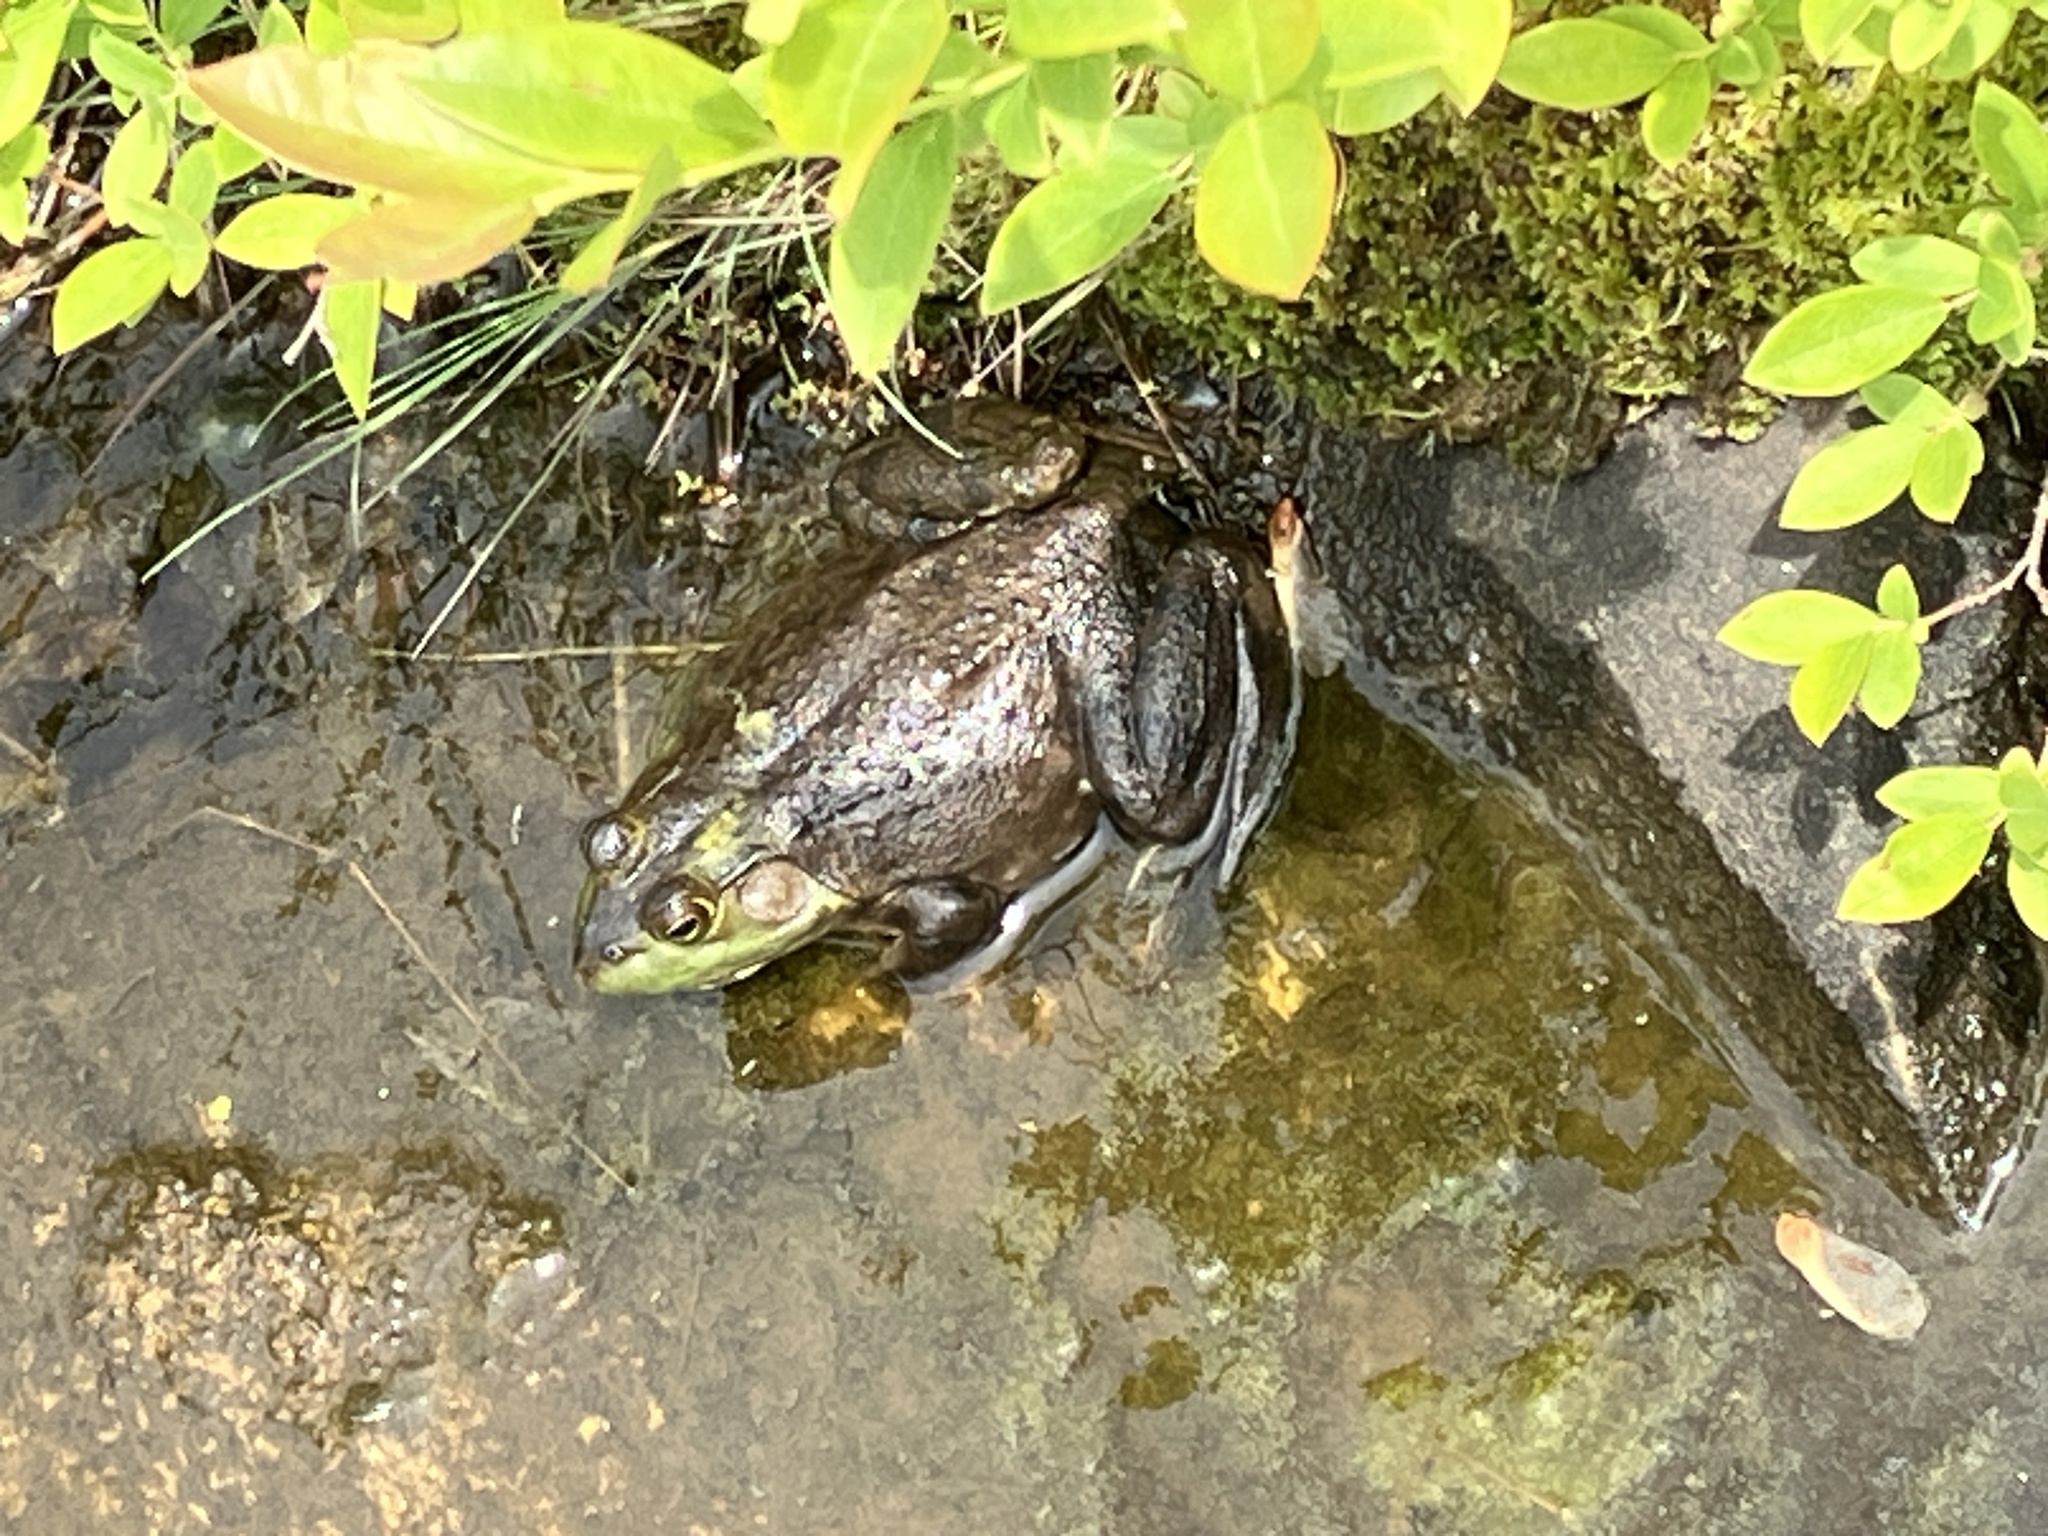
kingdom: Animalia
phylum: Chordata
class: Amphibia
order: Anura
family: Ranidae
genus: Lithobates
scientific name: Lithobates catesbeianus
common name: American bullfrog
